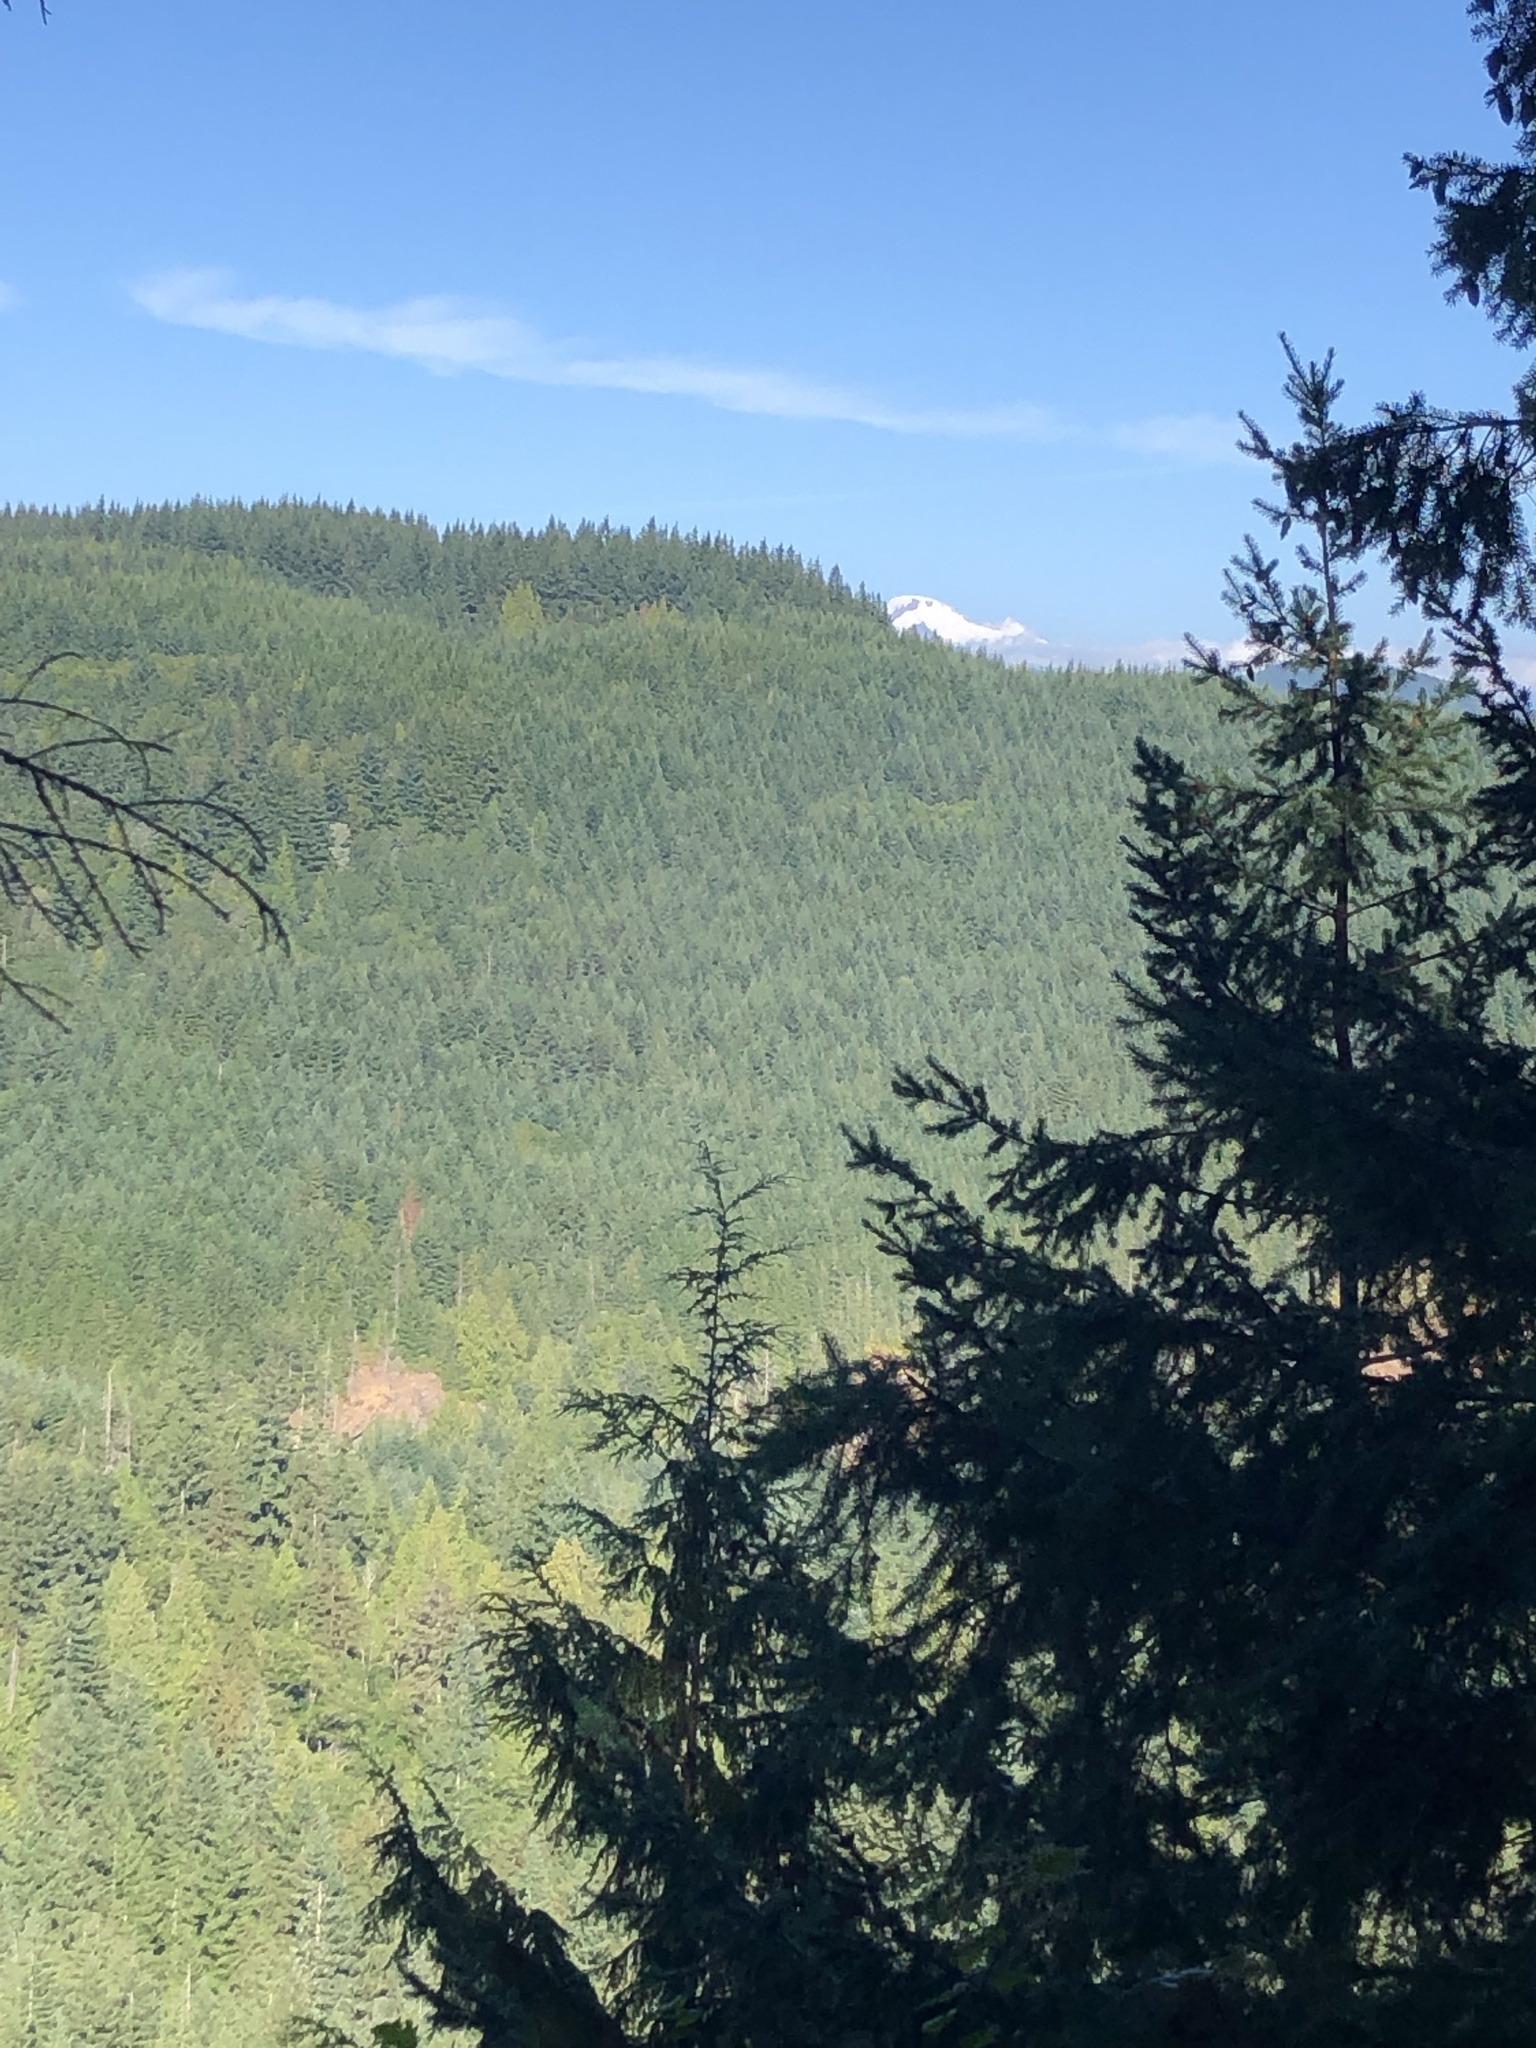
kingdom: Plantae
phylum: Tracheophyta
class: Pinopsida
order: Pinales
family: Pinaceae
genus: Pseudotsuga
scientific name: Pseudotsuga menziesii
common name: Douglas fir
